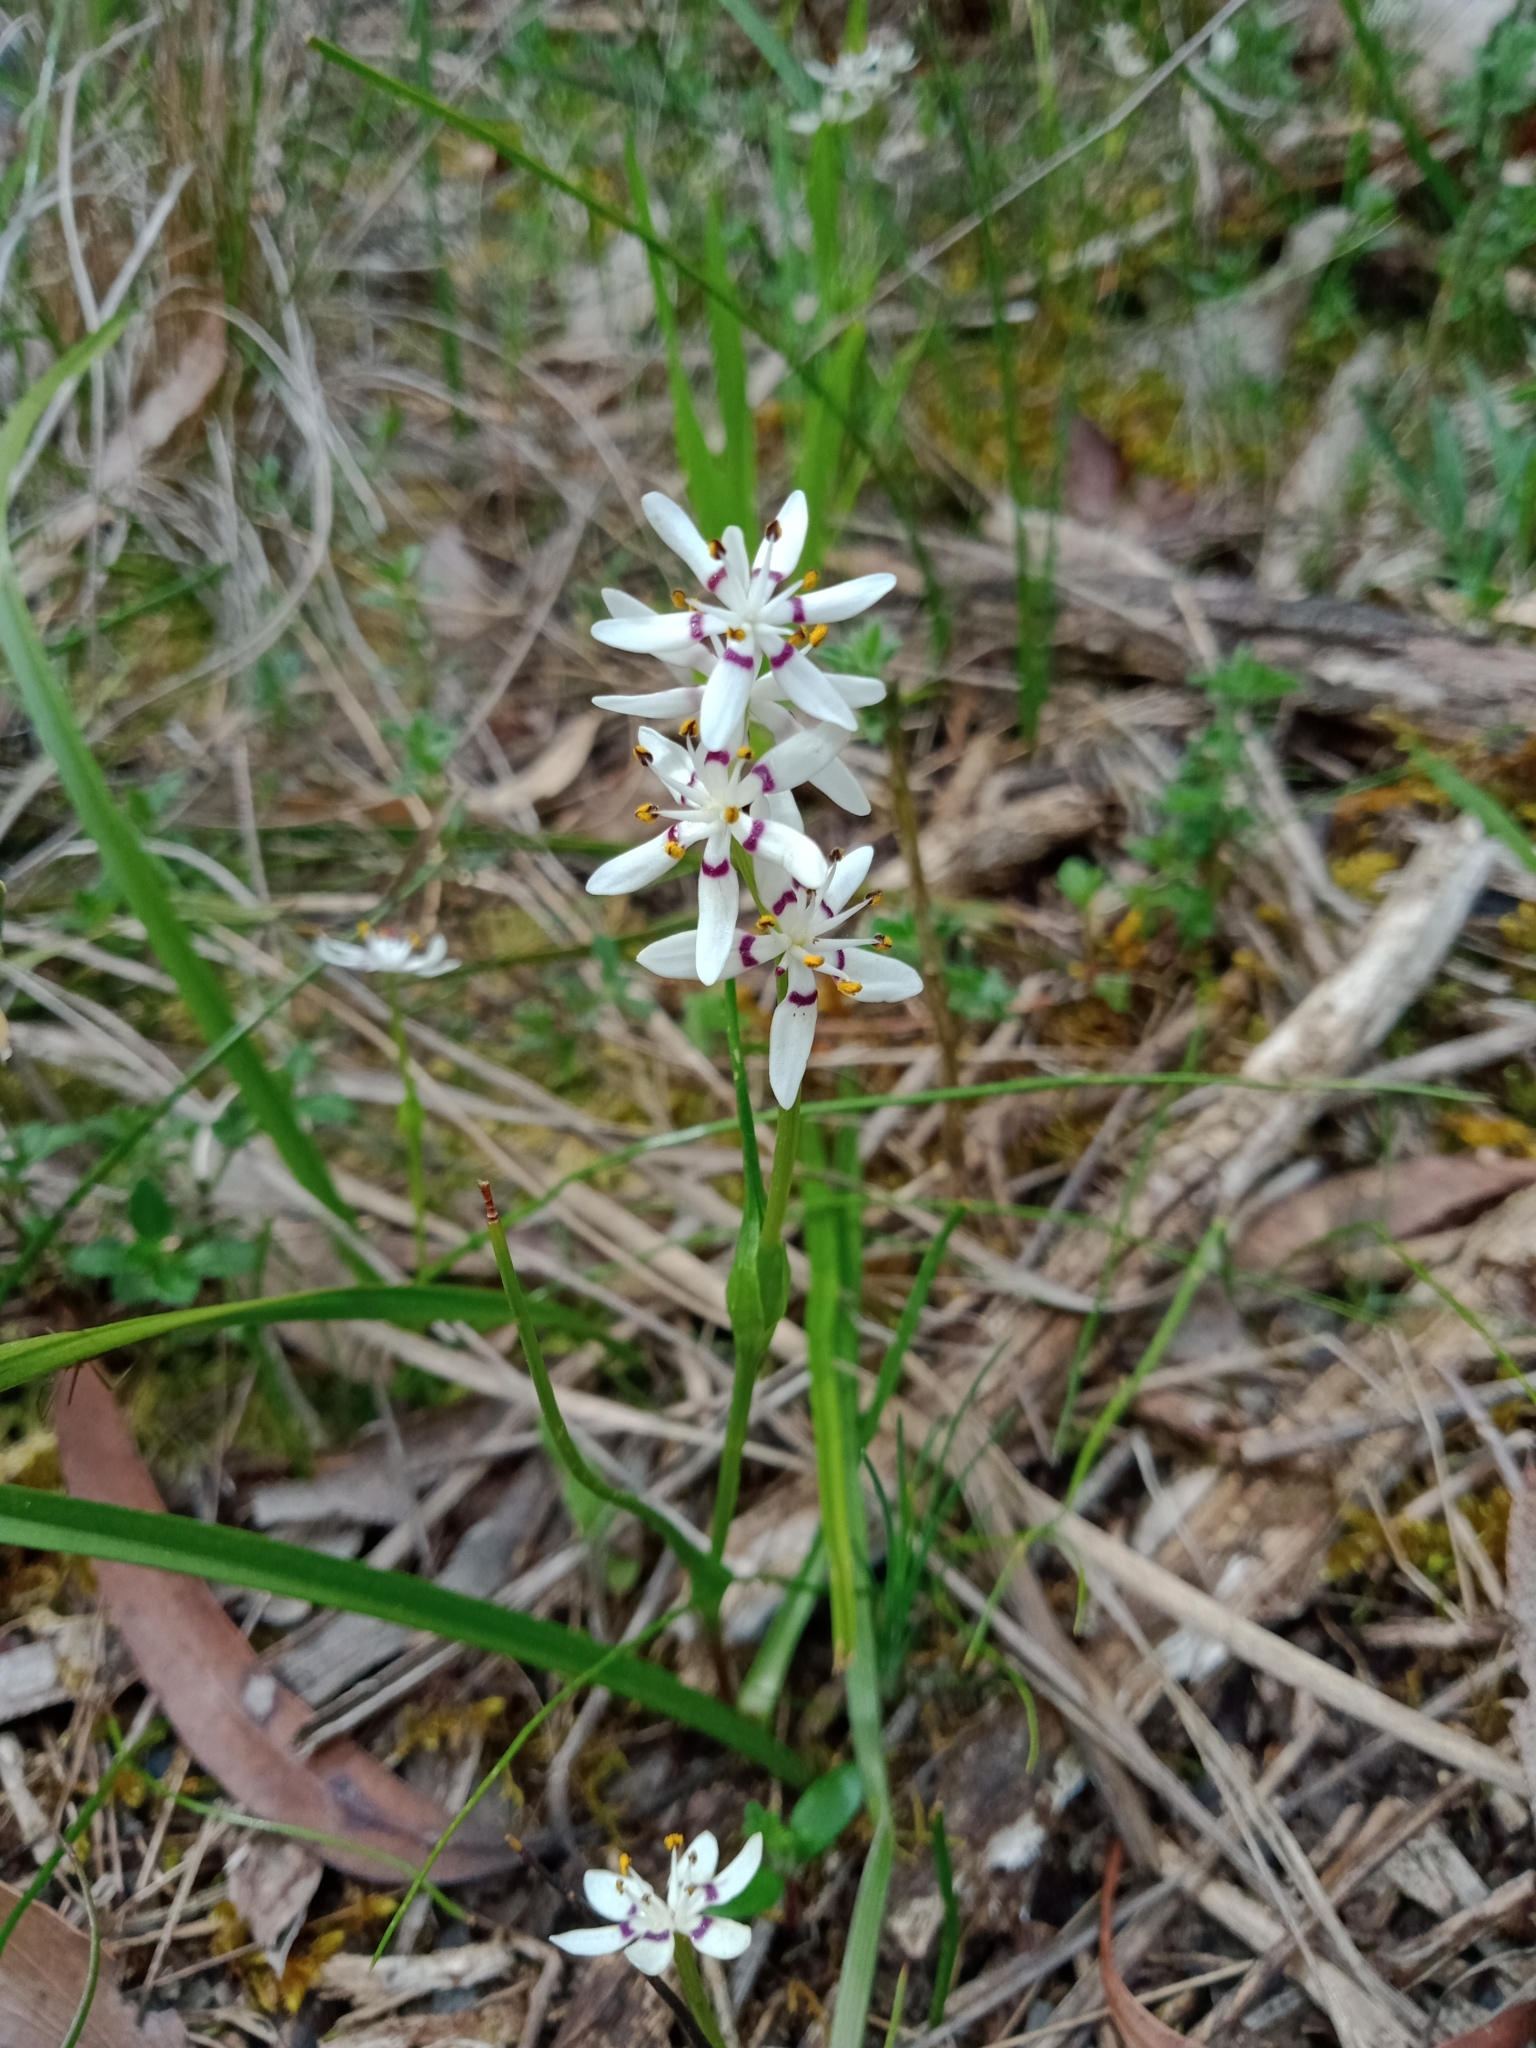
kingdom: Plantae
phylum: Tracheophyta
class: Liliopsida
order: Liliales
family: Colchicaceae
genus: Wurmbea
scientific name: Wurmbea dioica
